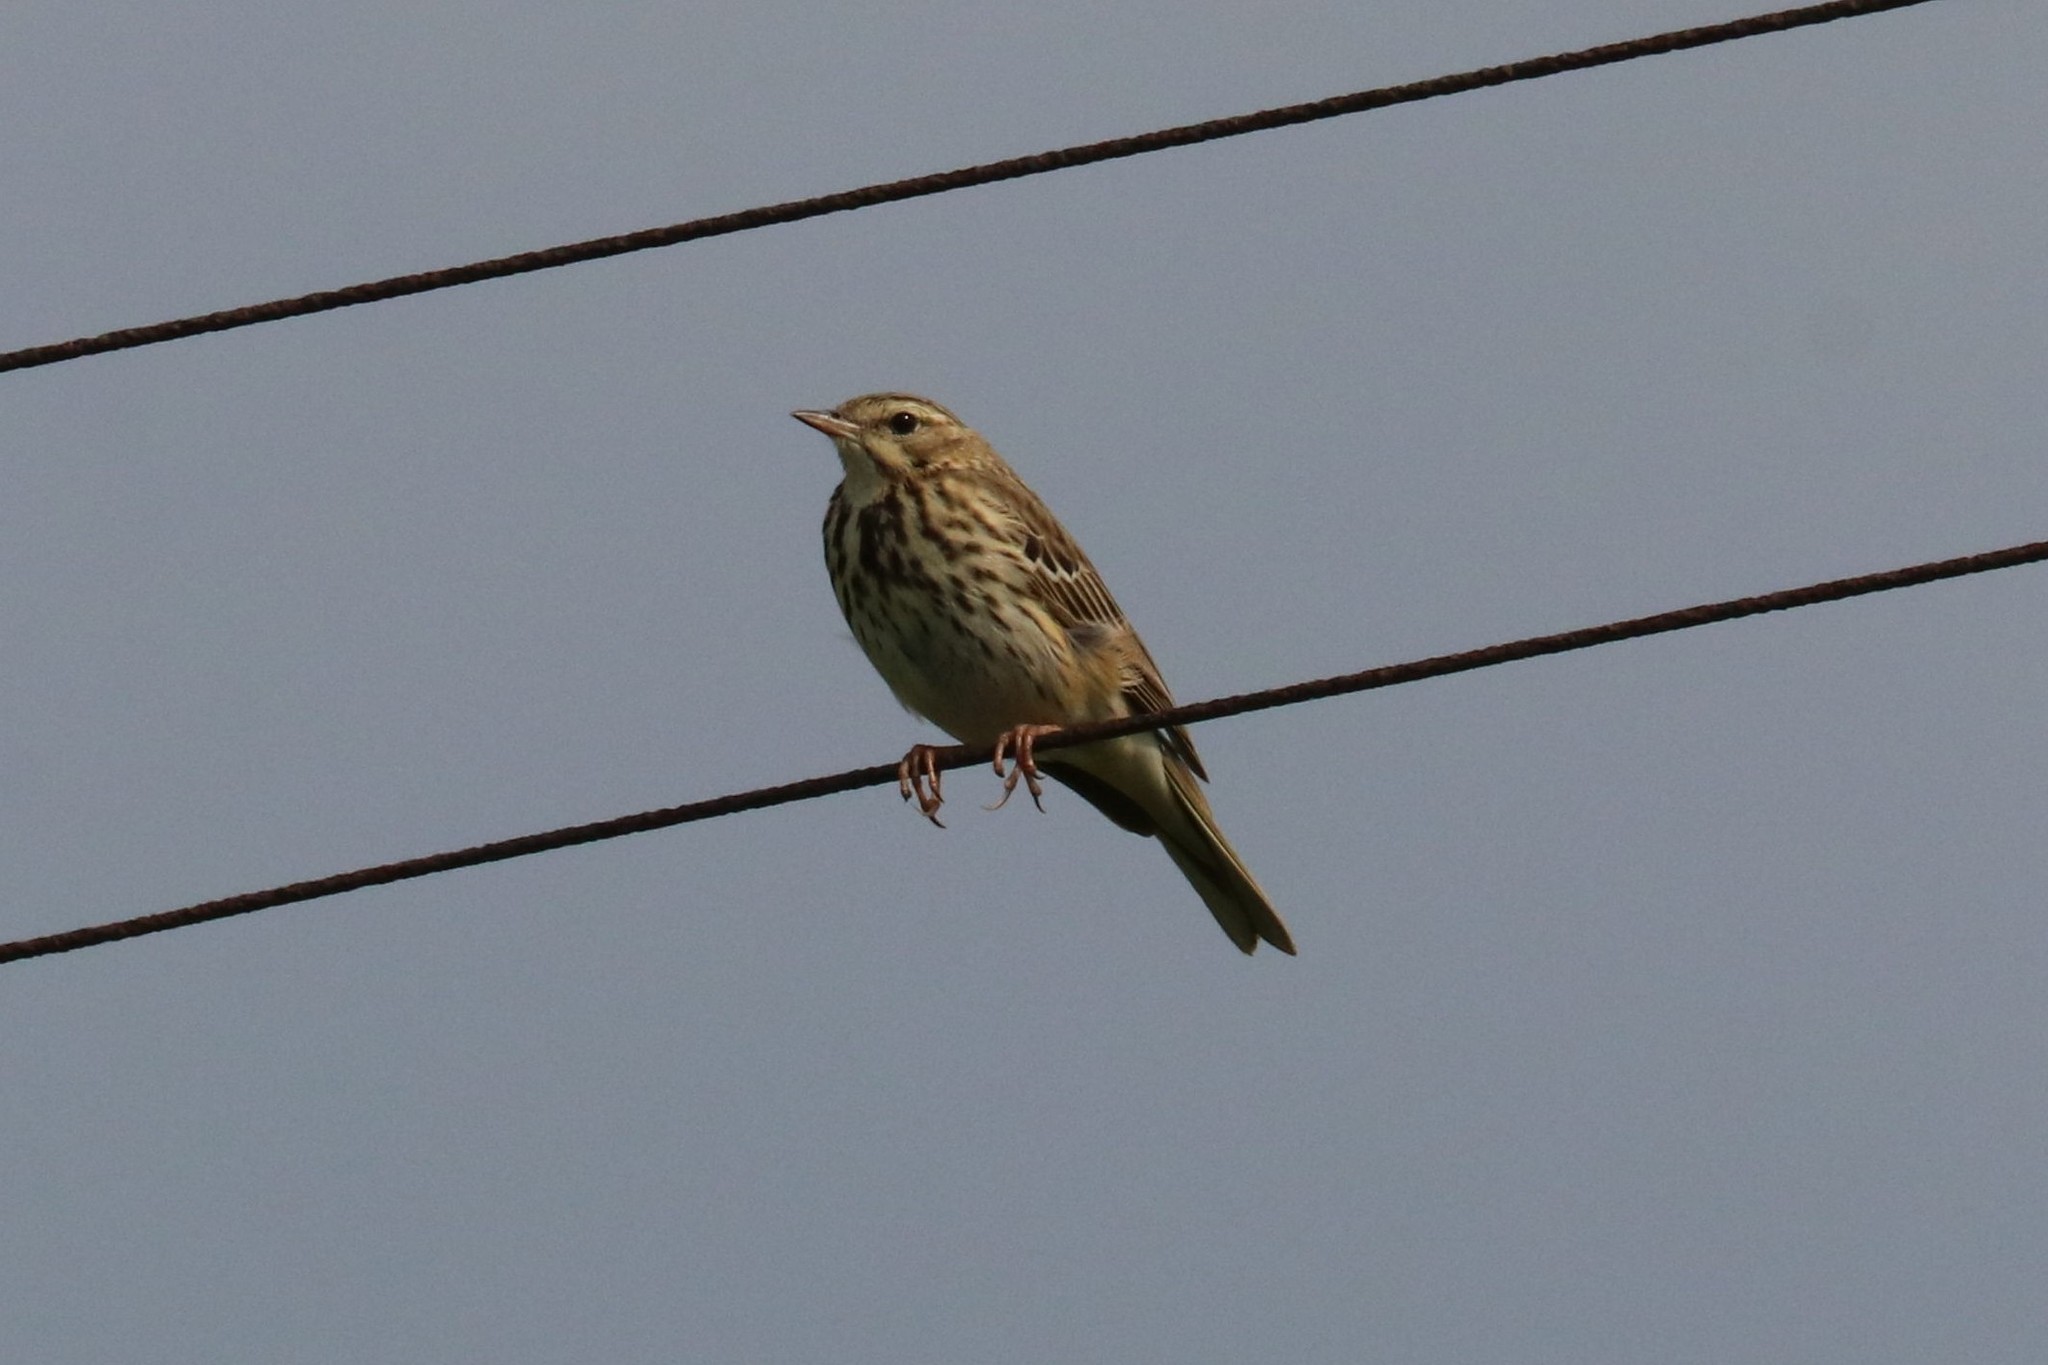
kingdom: Animalia
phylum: Chordata
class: Aves
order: Passeriformes
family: Motacillidae
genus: Anthus
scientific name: Anthus trivialis
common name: Tree pipit
